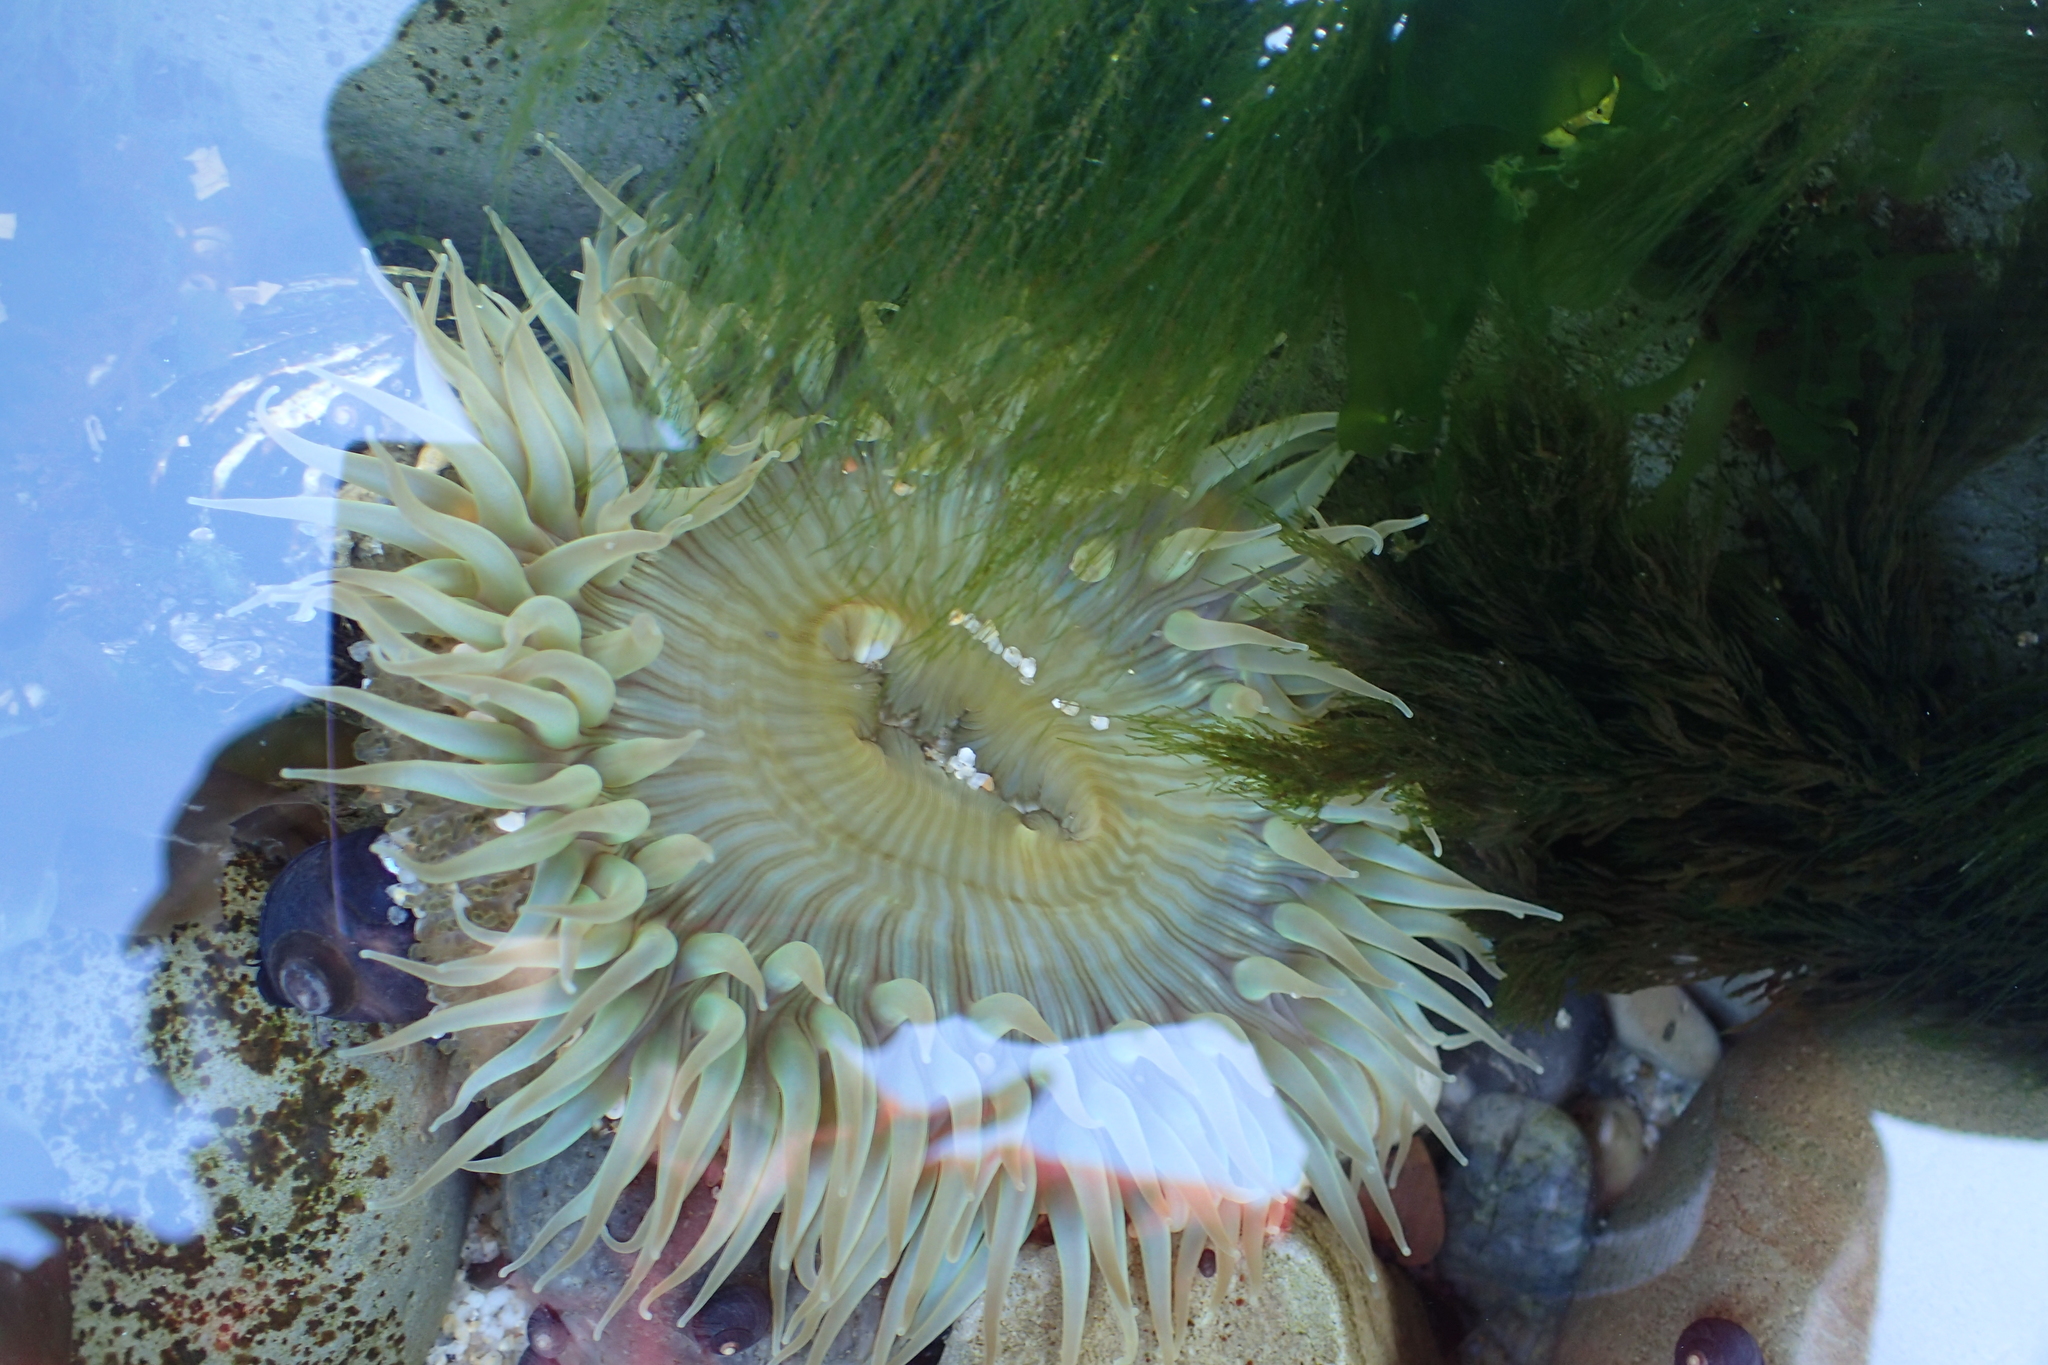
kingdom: Animalia
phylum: Cnidaria
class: Anthozoa
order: Actiniaria
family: Actiniidae
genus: Anthopleura
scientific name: Anthopleura sola
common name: Sun anemone
